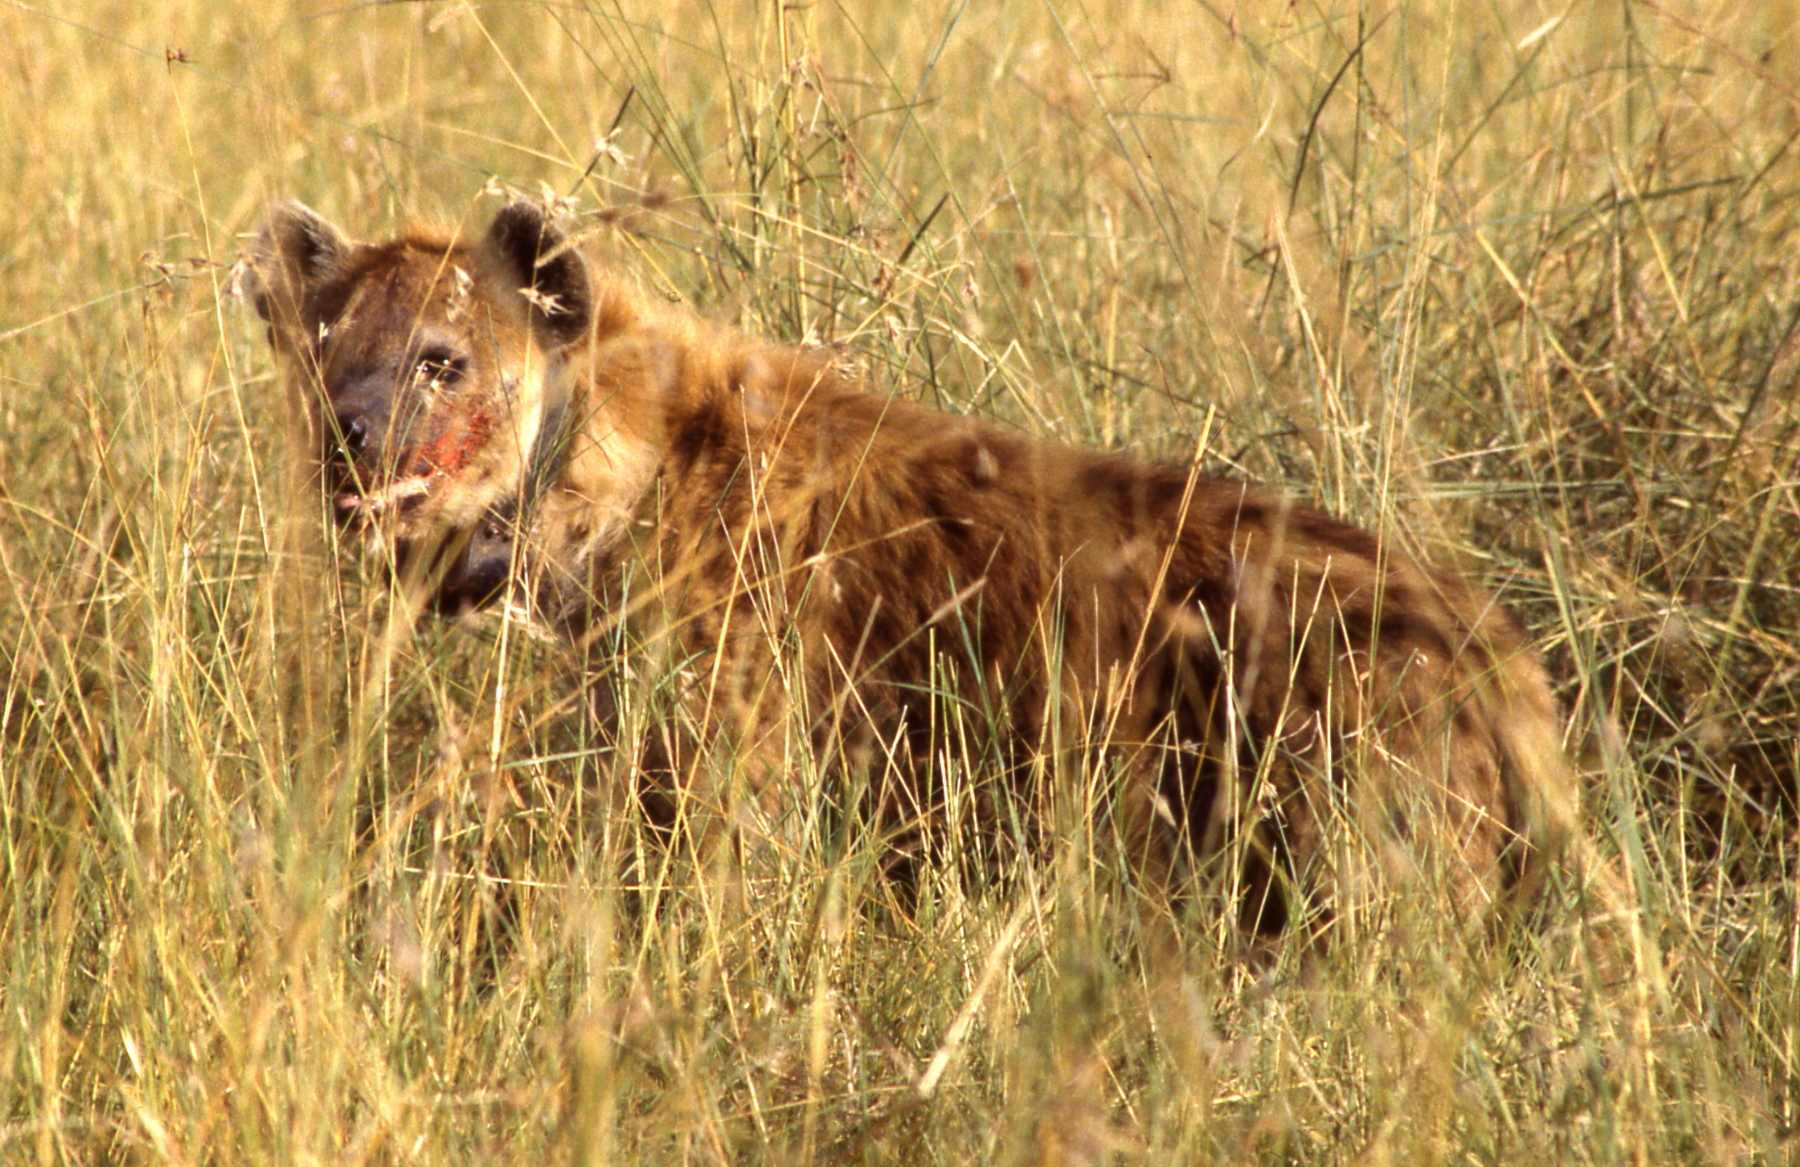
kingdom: Animalia
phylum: Chordata
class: Mammalia
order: Carnivora
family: Hyaenidae
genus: Crocuta
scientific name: Crocuta crocuta
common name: Spotted hyaena
